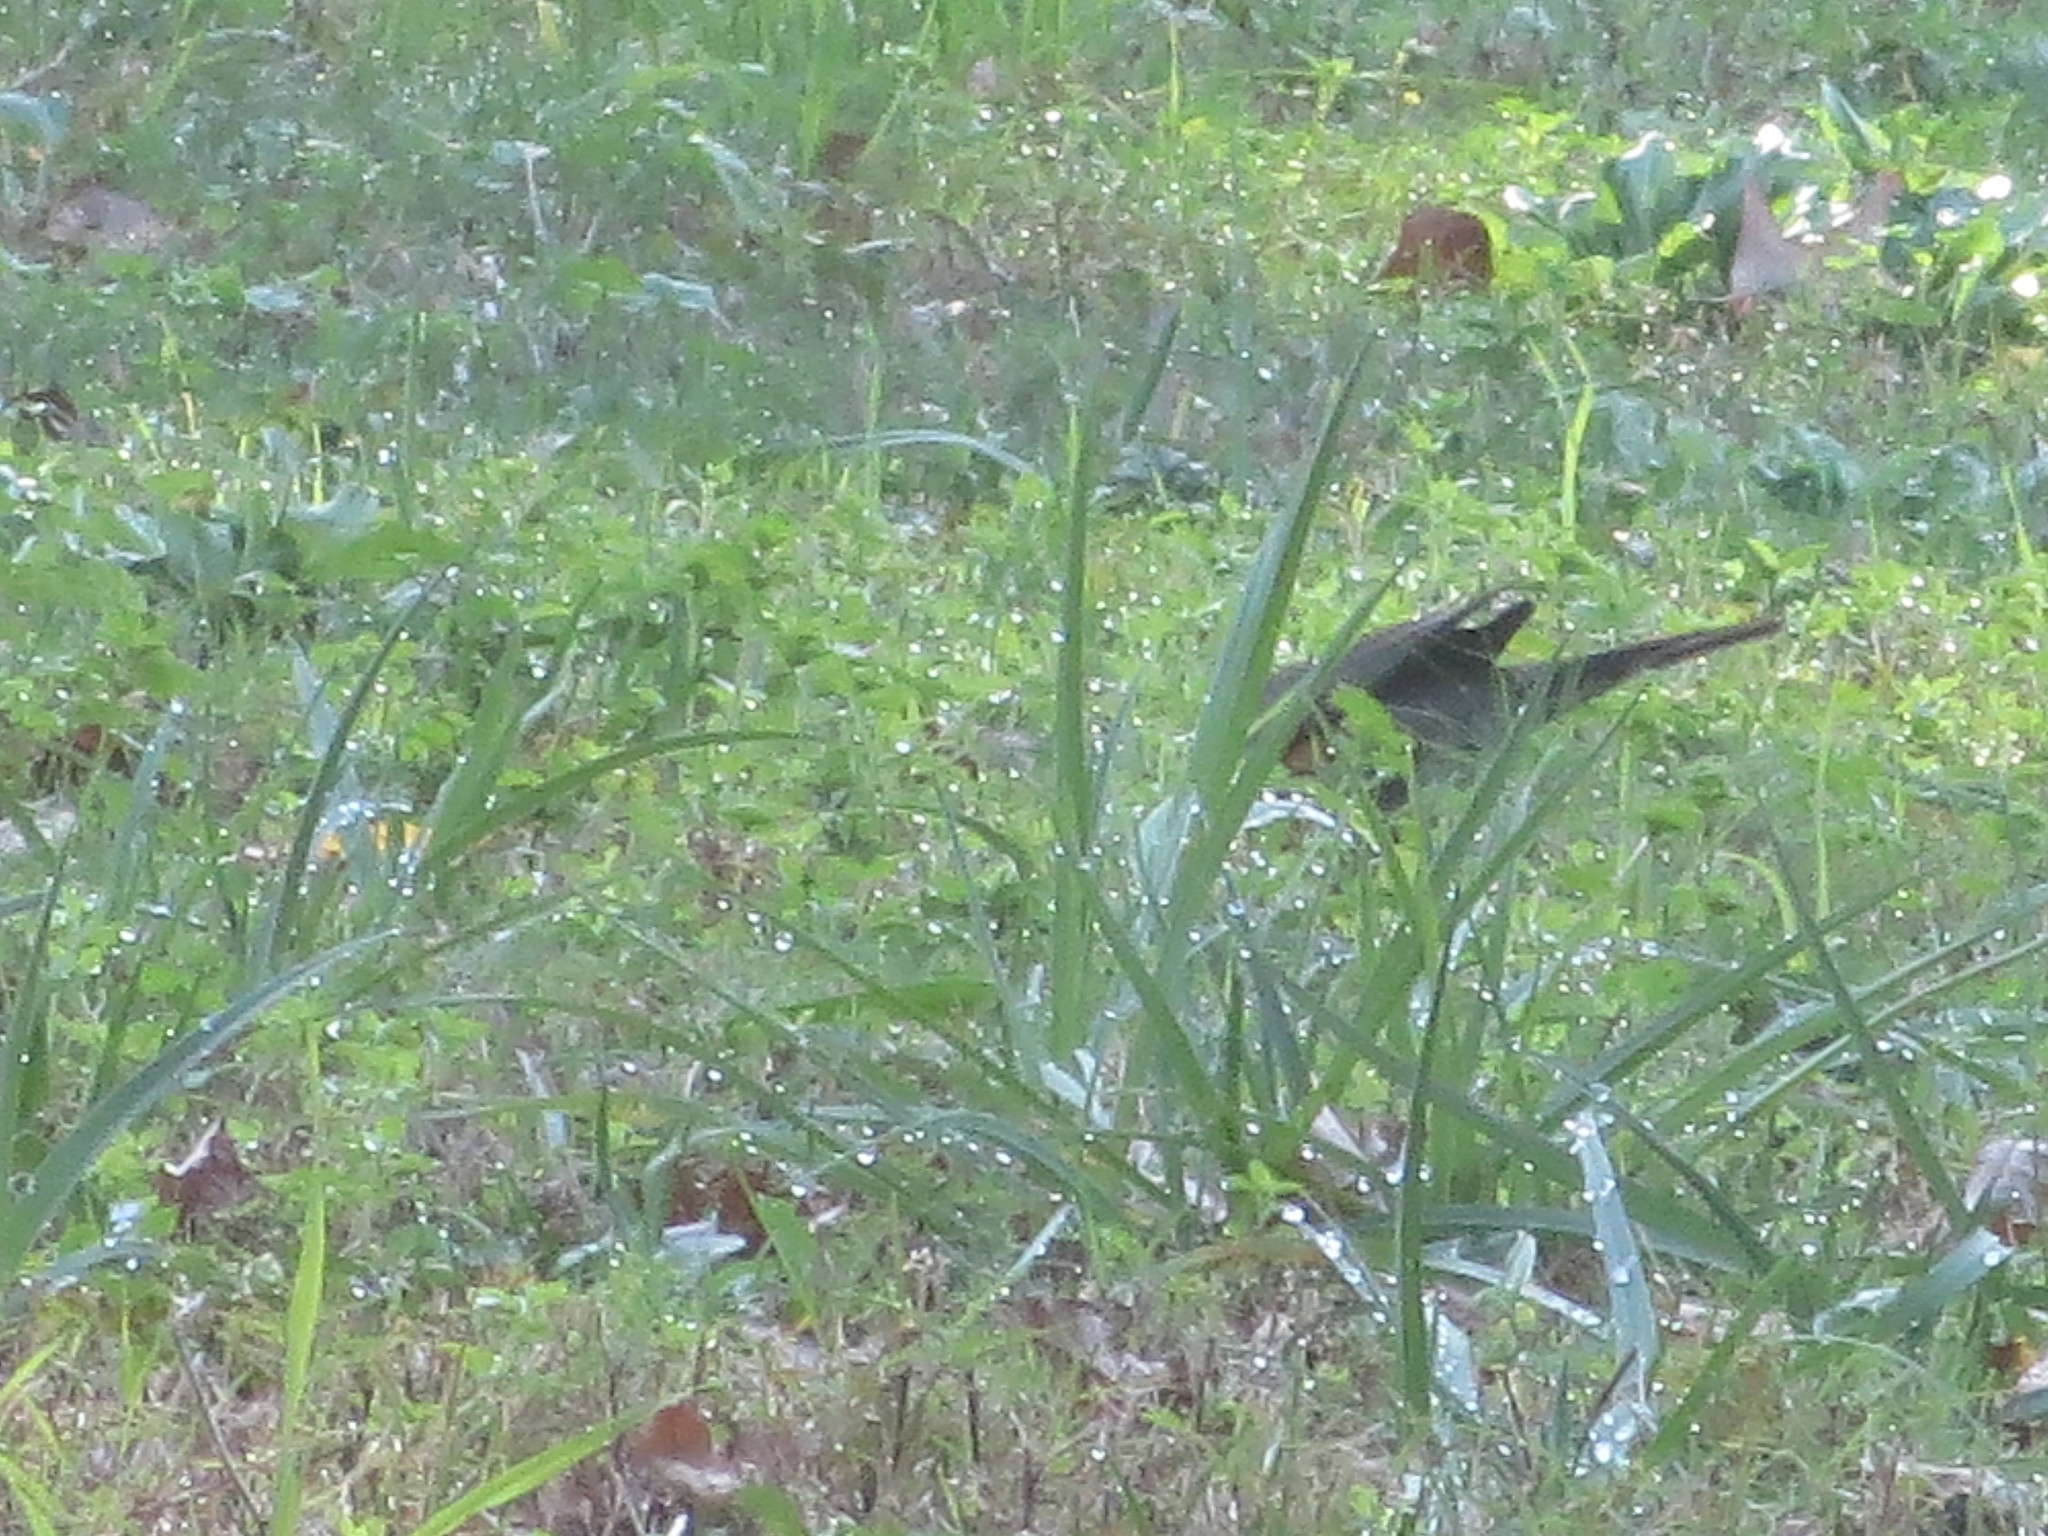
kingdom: Animalia
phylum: Chordata
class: Aves
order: Passeriformes
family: Turdidae
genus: Turdus
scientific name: Turdus migratorius
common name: American robin
